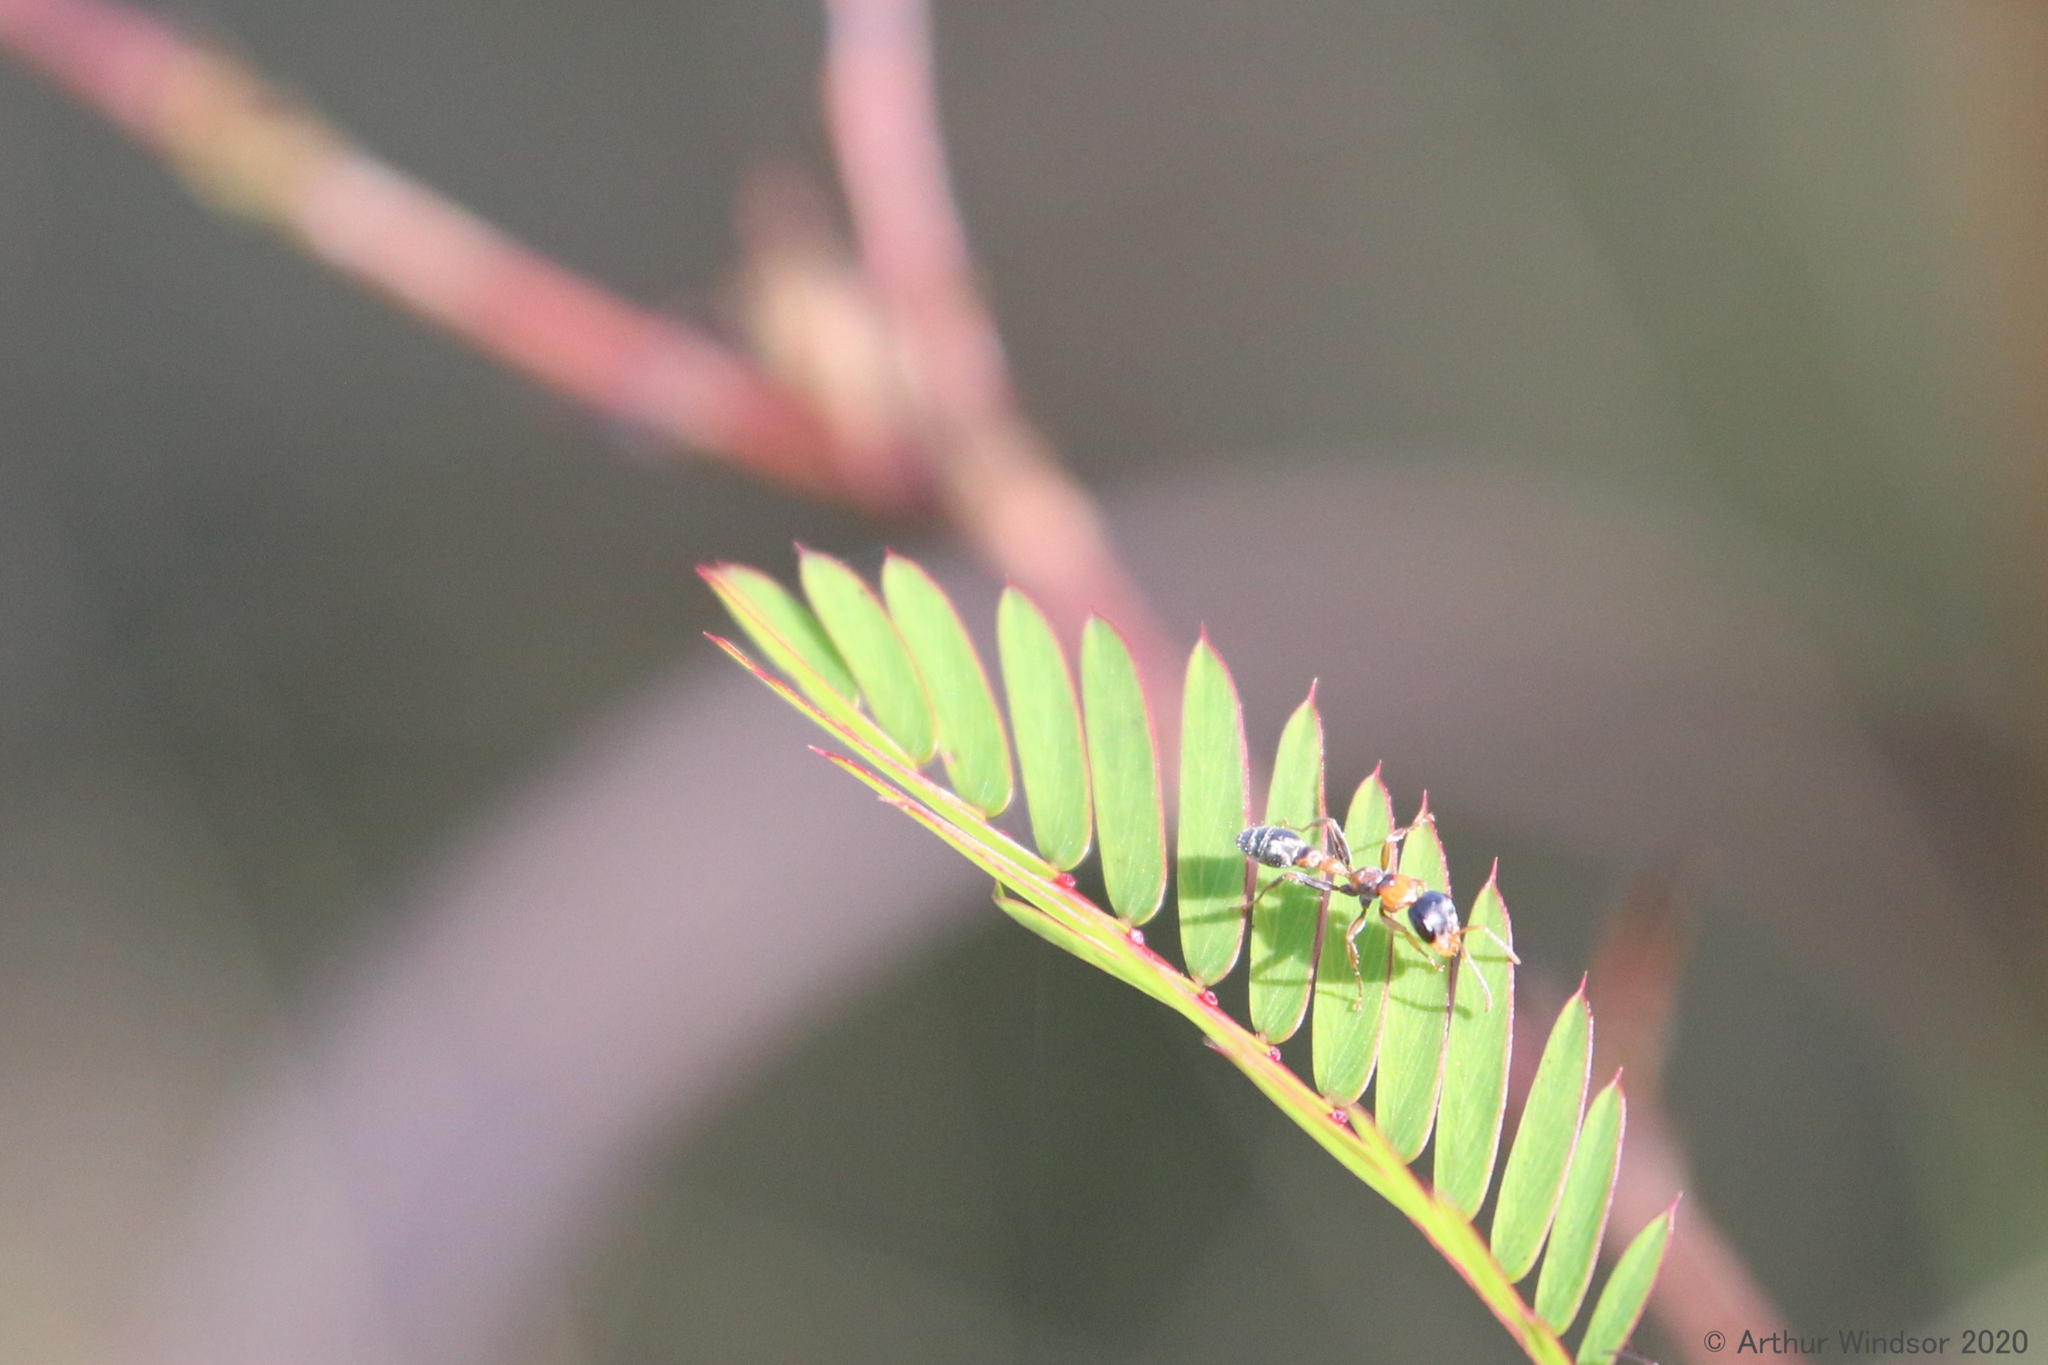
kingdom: Animalia
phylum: Arthropoda
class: Insecta
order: Hymenoptera
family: Formicidae
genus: Pseudomyrmex
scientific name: Pseudomyrmex gracilis
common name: Graceful twig ant
